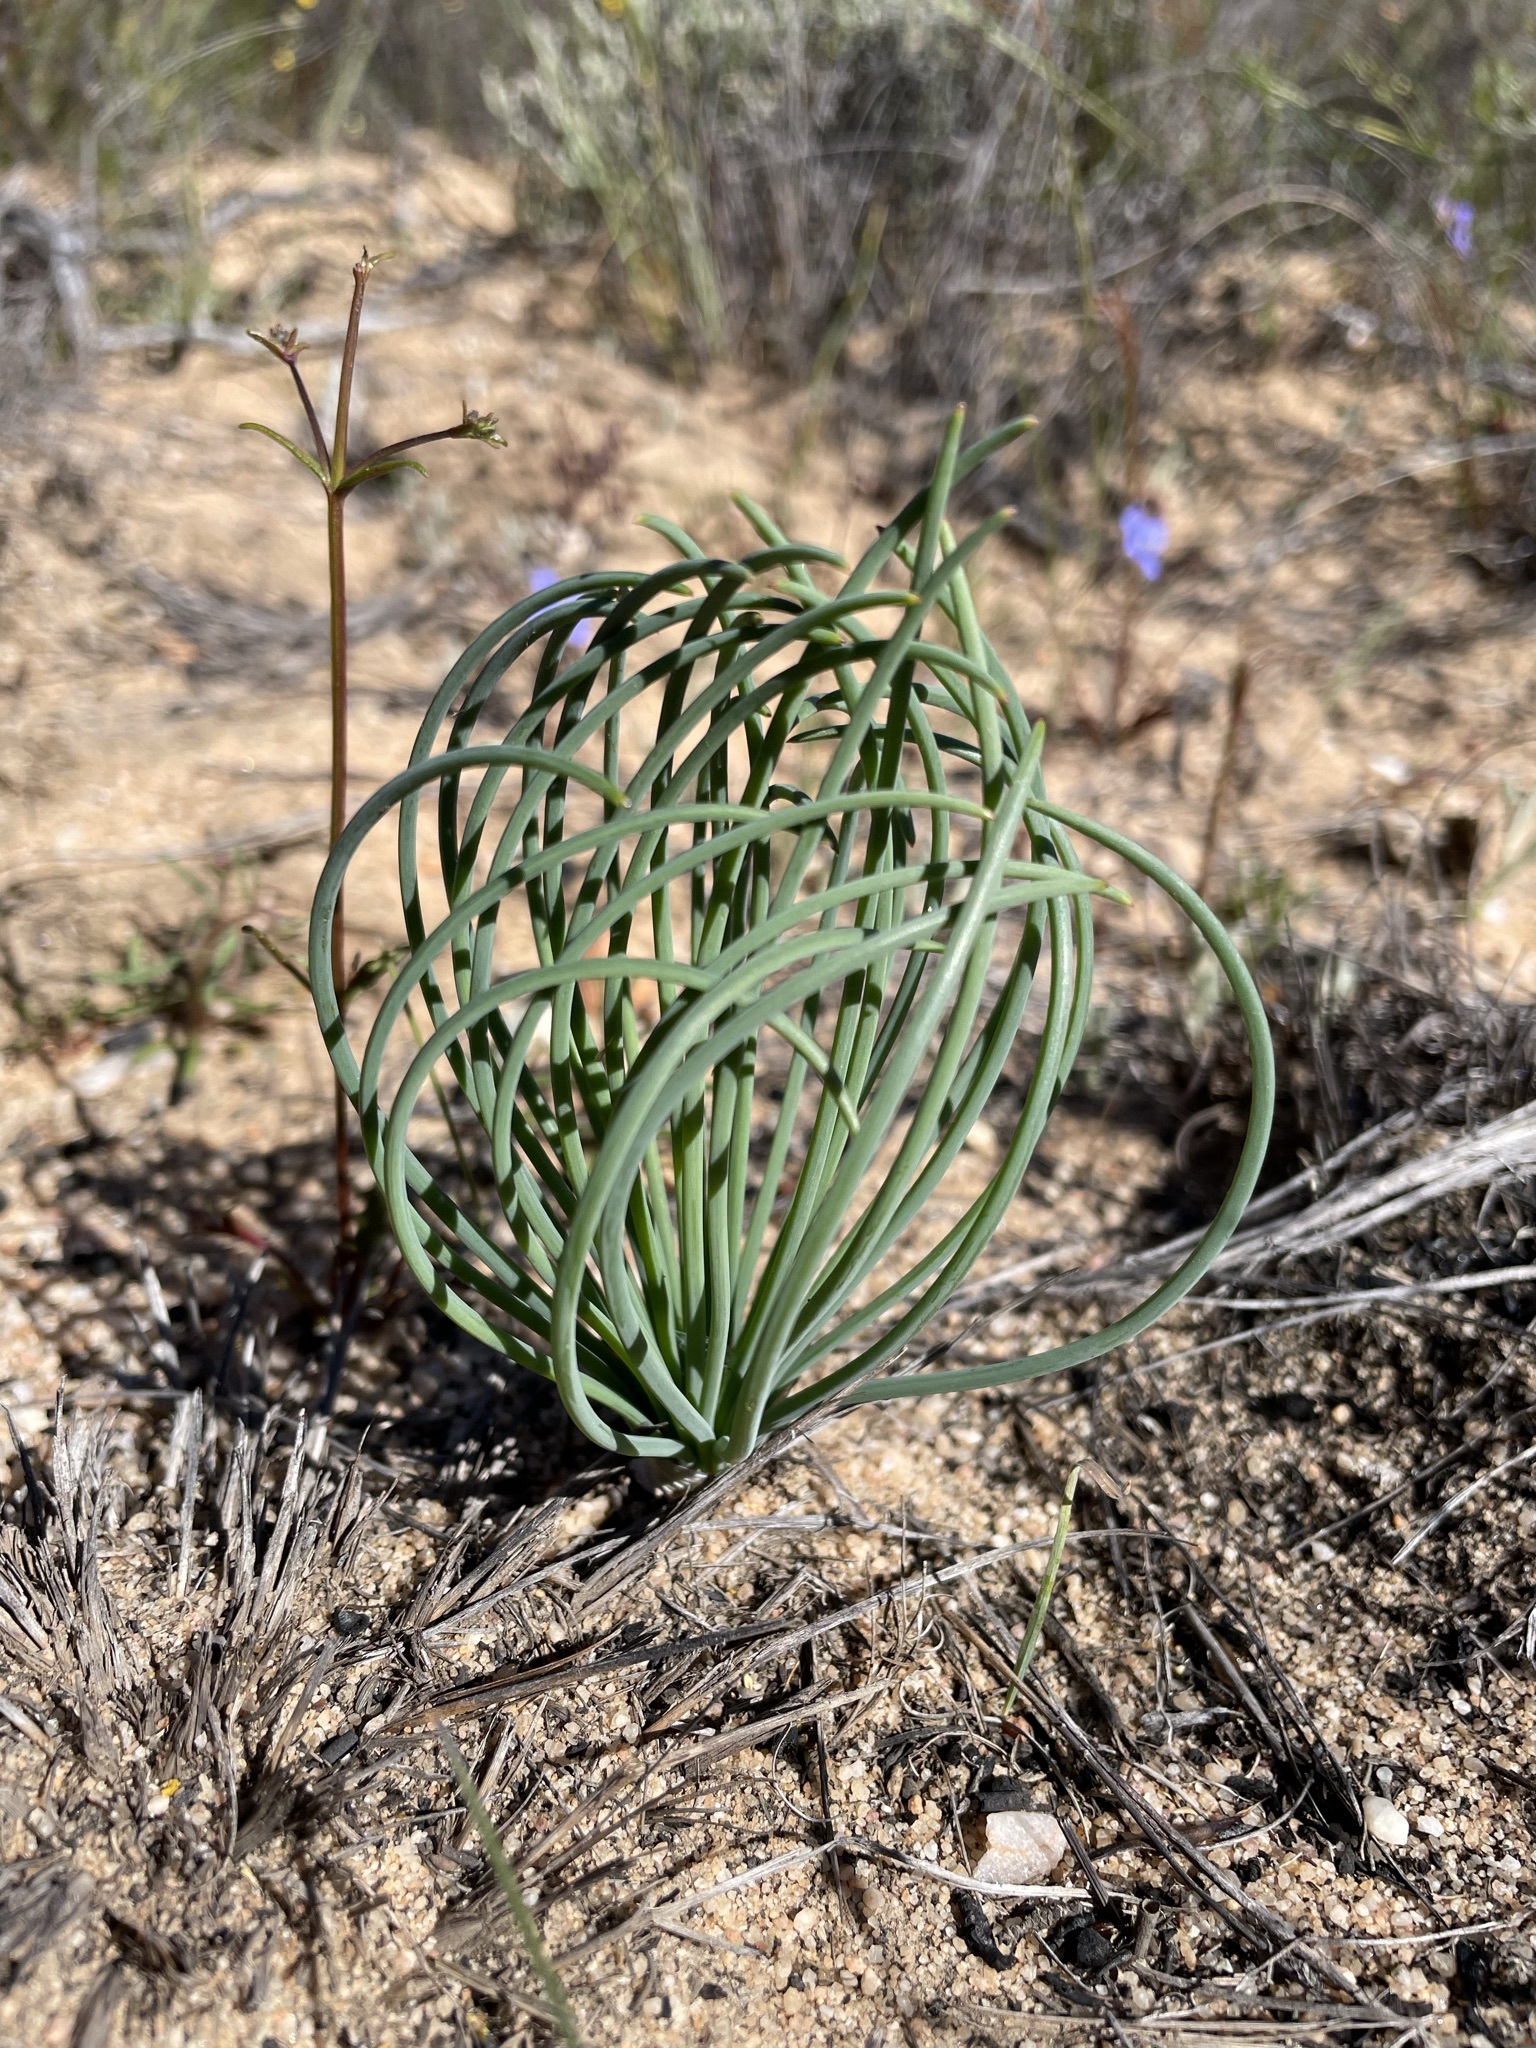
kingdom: Plantae
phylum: Tracheophyta
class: Liliopsida
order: Asparagales
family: Asparagaceae
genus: Drimia
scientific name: Drimia fragrans
